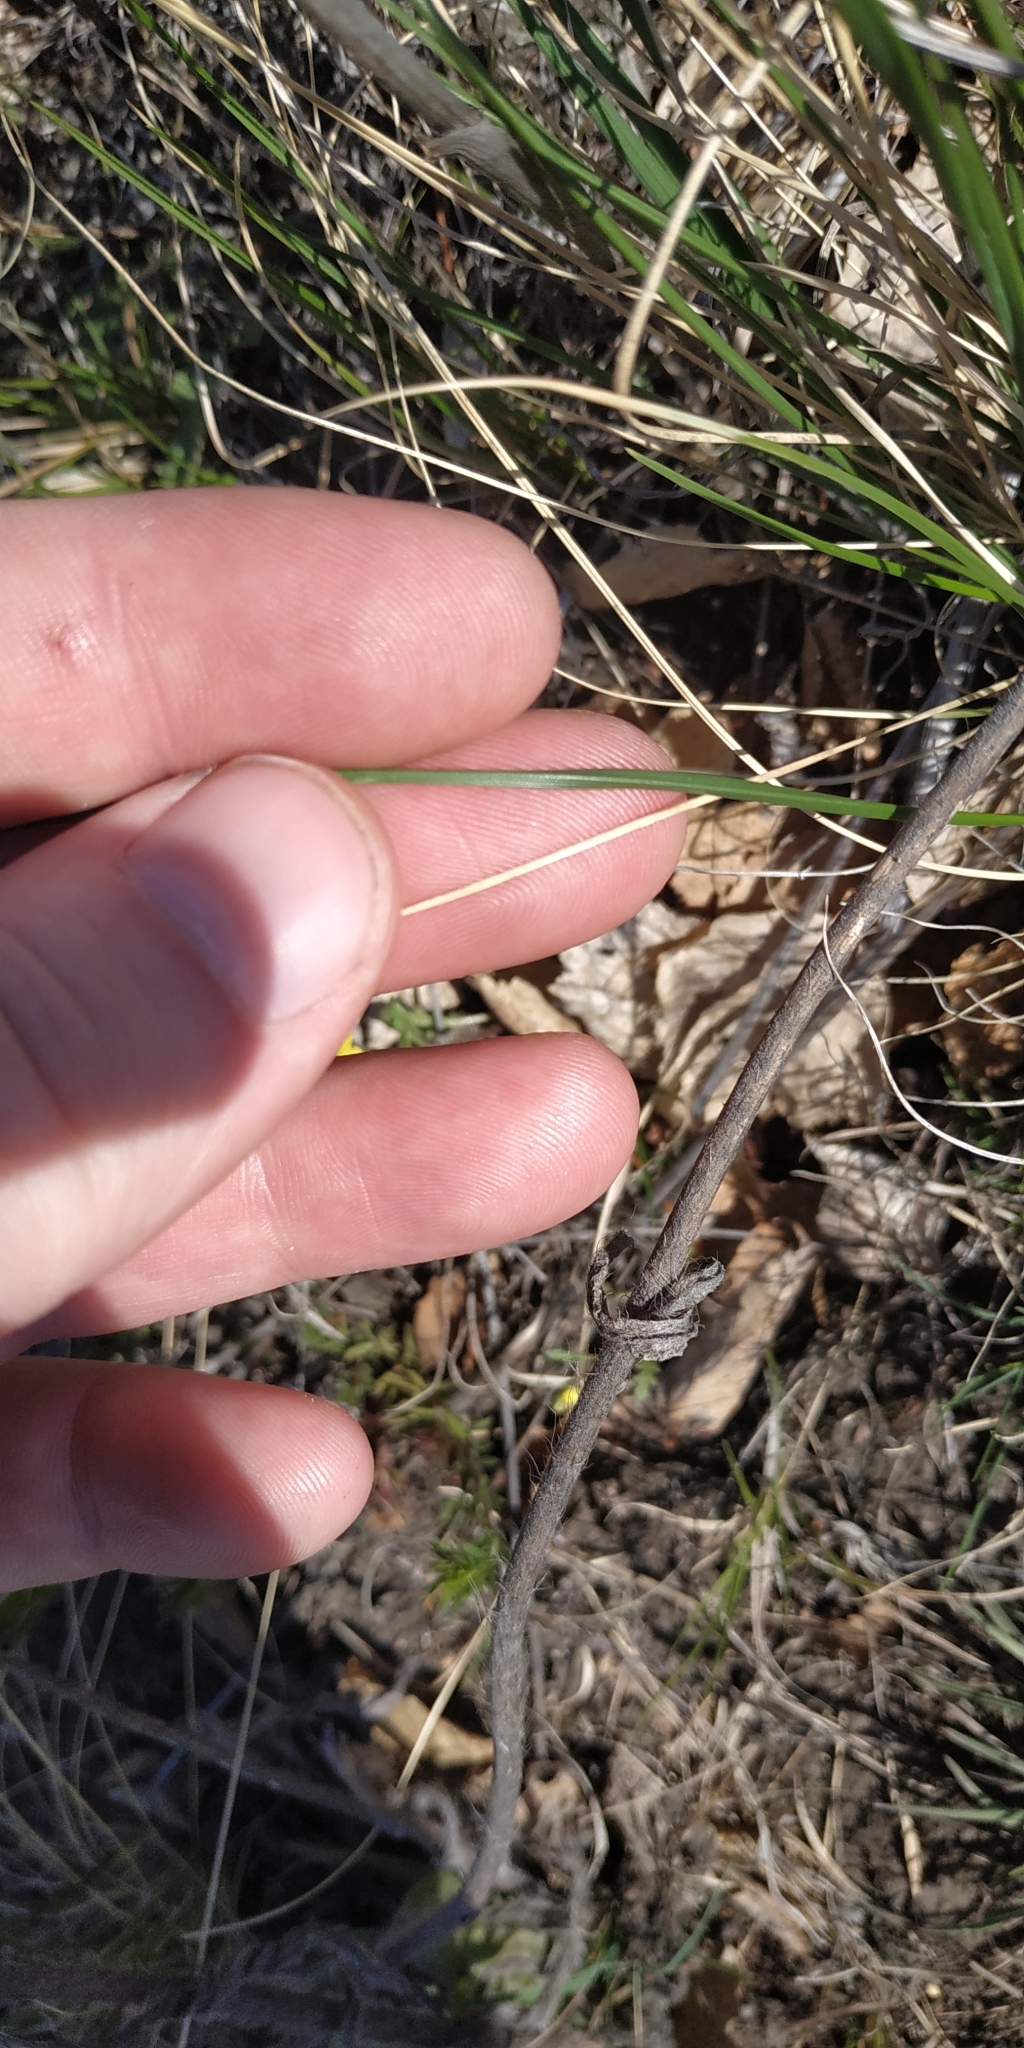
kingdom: Plantae
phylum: Tracheophyta
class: Liliopsida
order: Asparagales
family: Amaryllidaceae
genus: Allium
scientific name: Allium strictum
